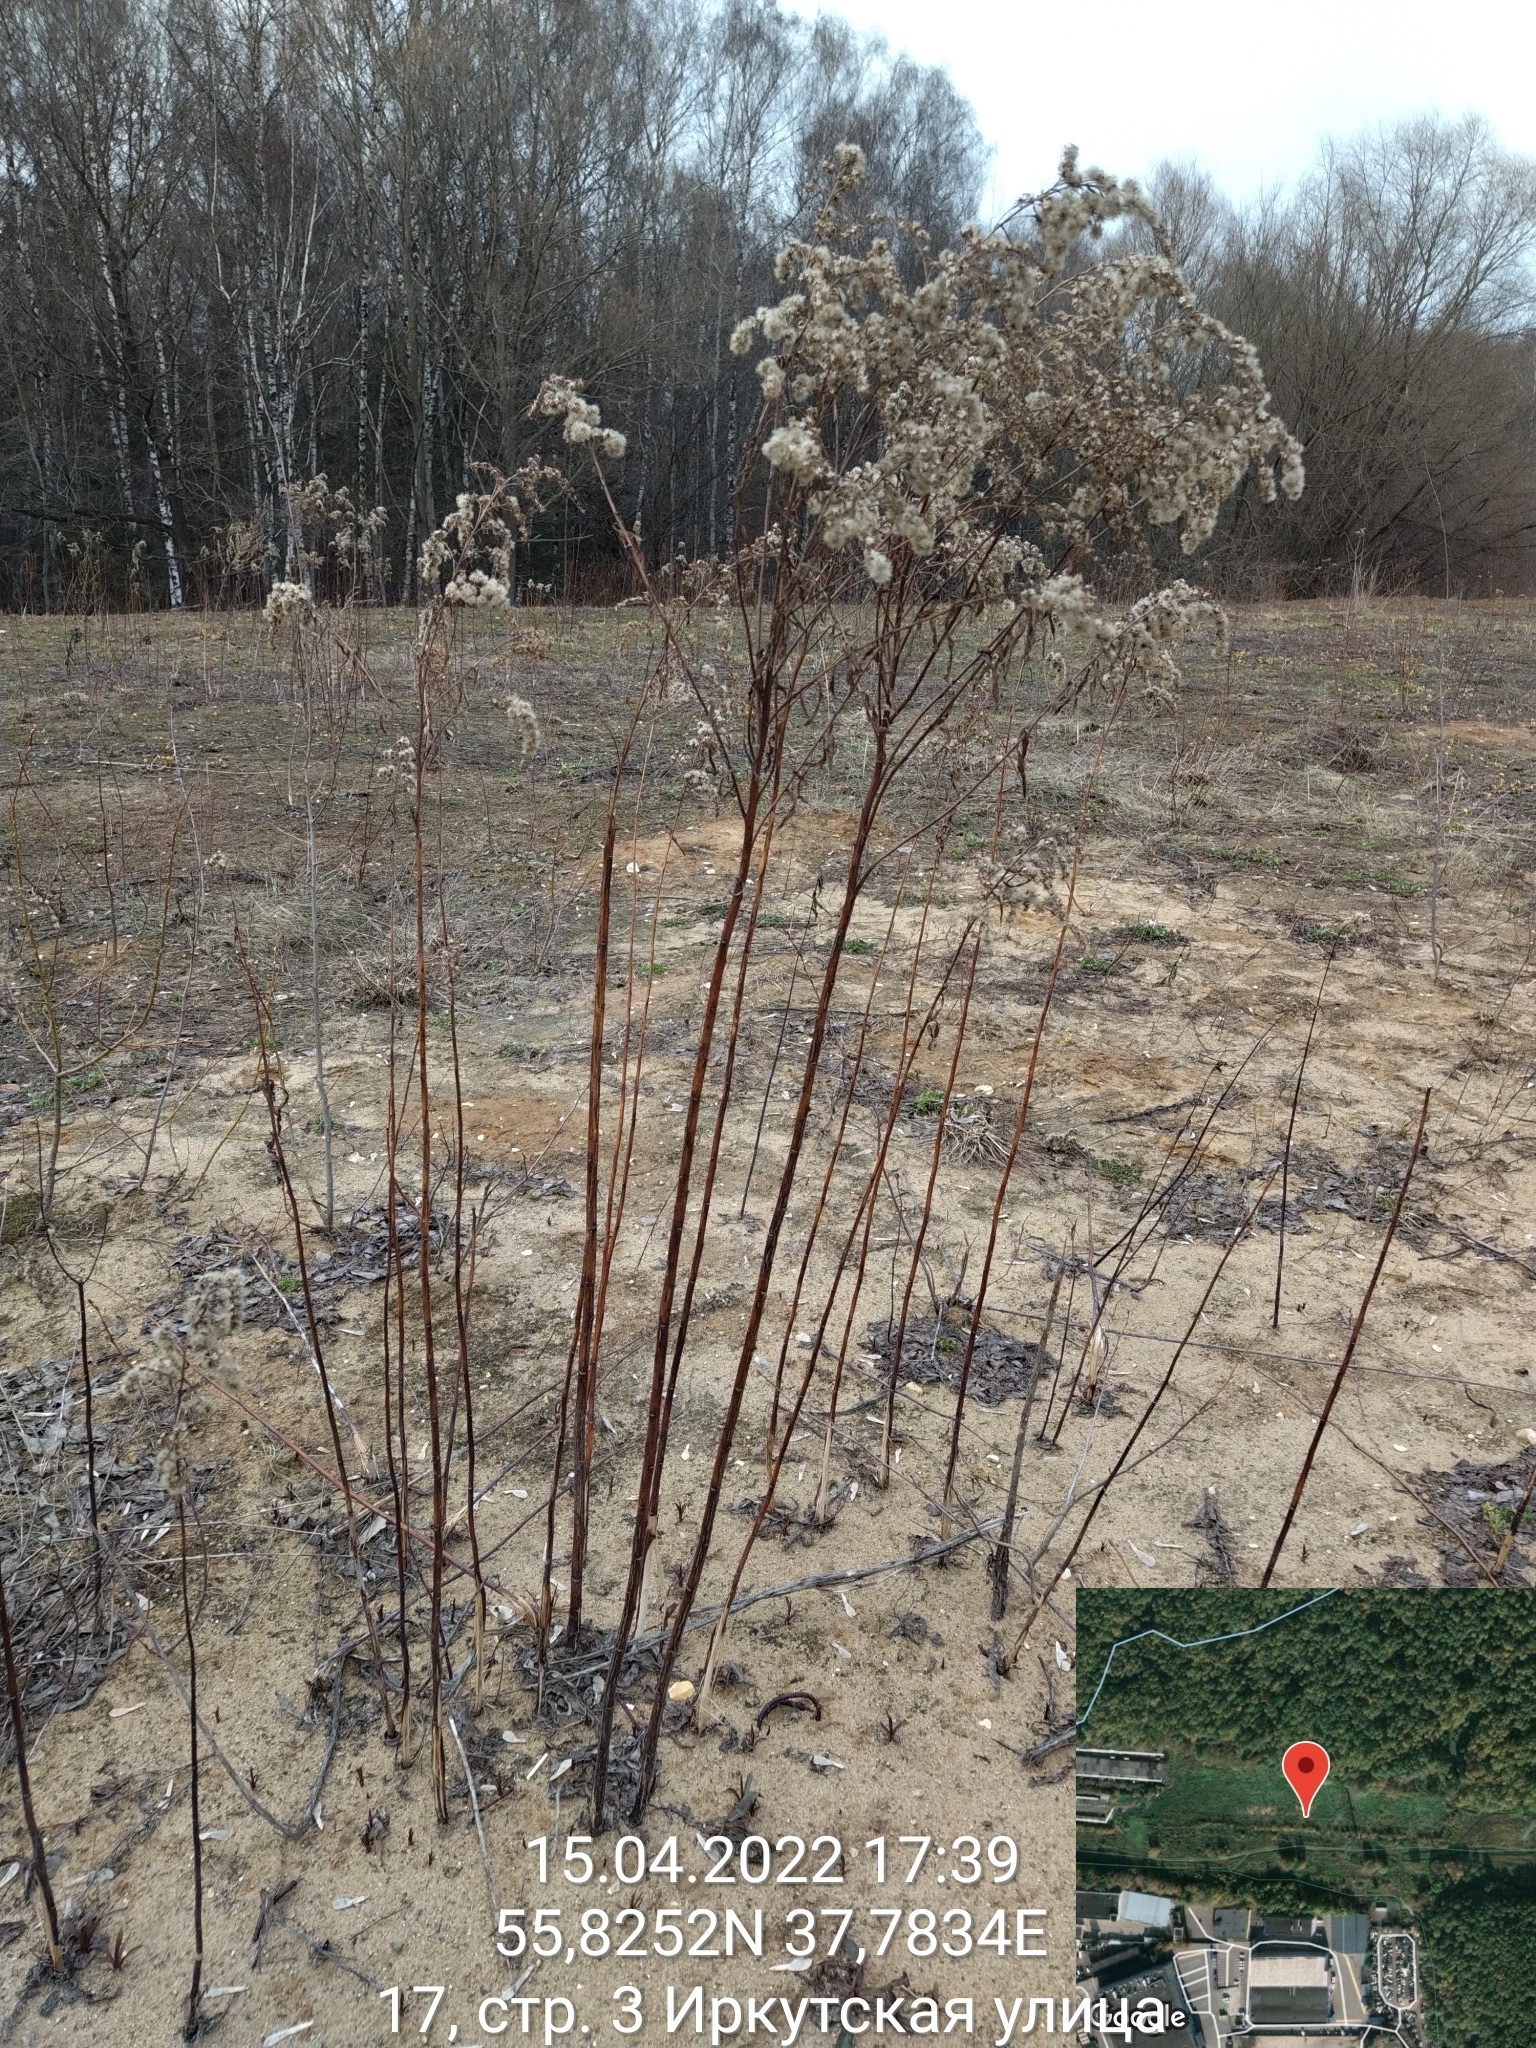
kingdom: Plantae
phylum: Tracheophyta
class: Magnoliopsida
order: Asterales
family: Asteraceae
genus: Solidago
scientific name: Solidago gigantea
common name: Giant goldenrod
